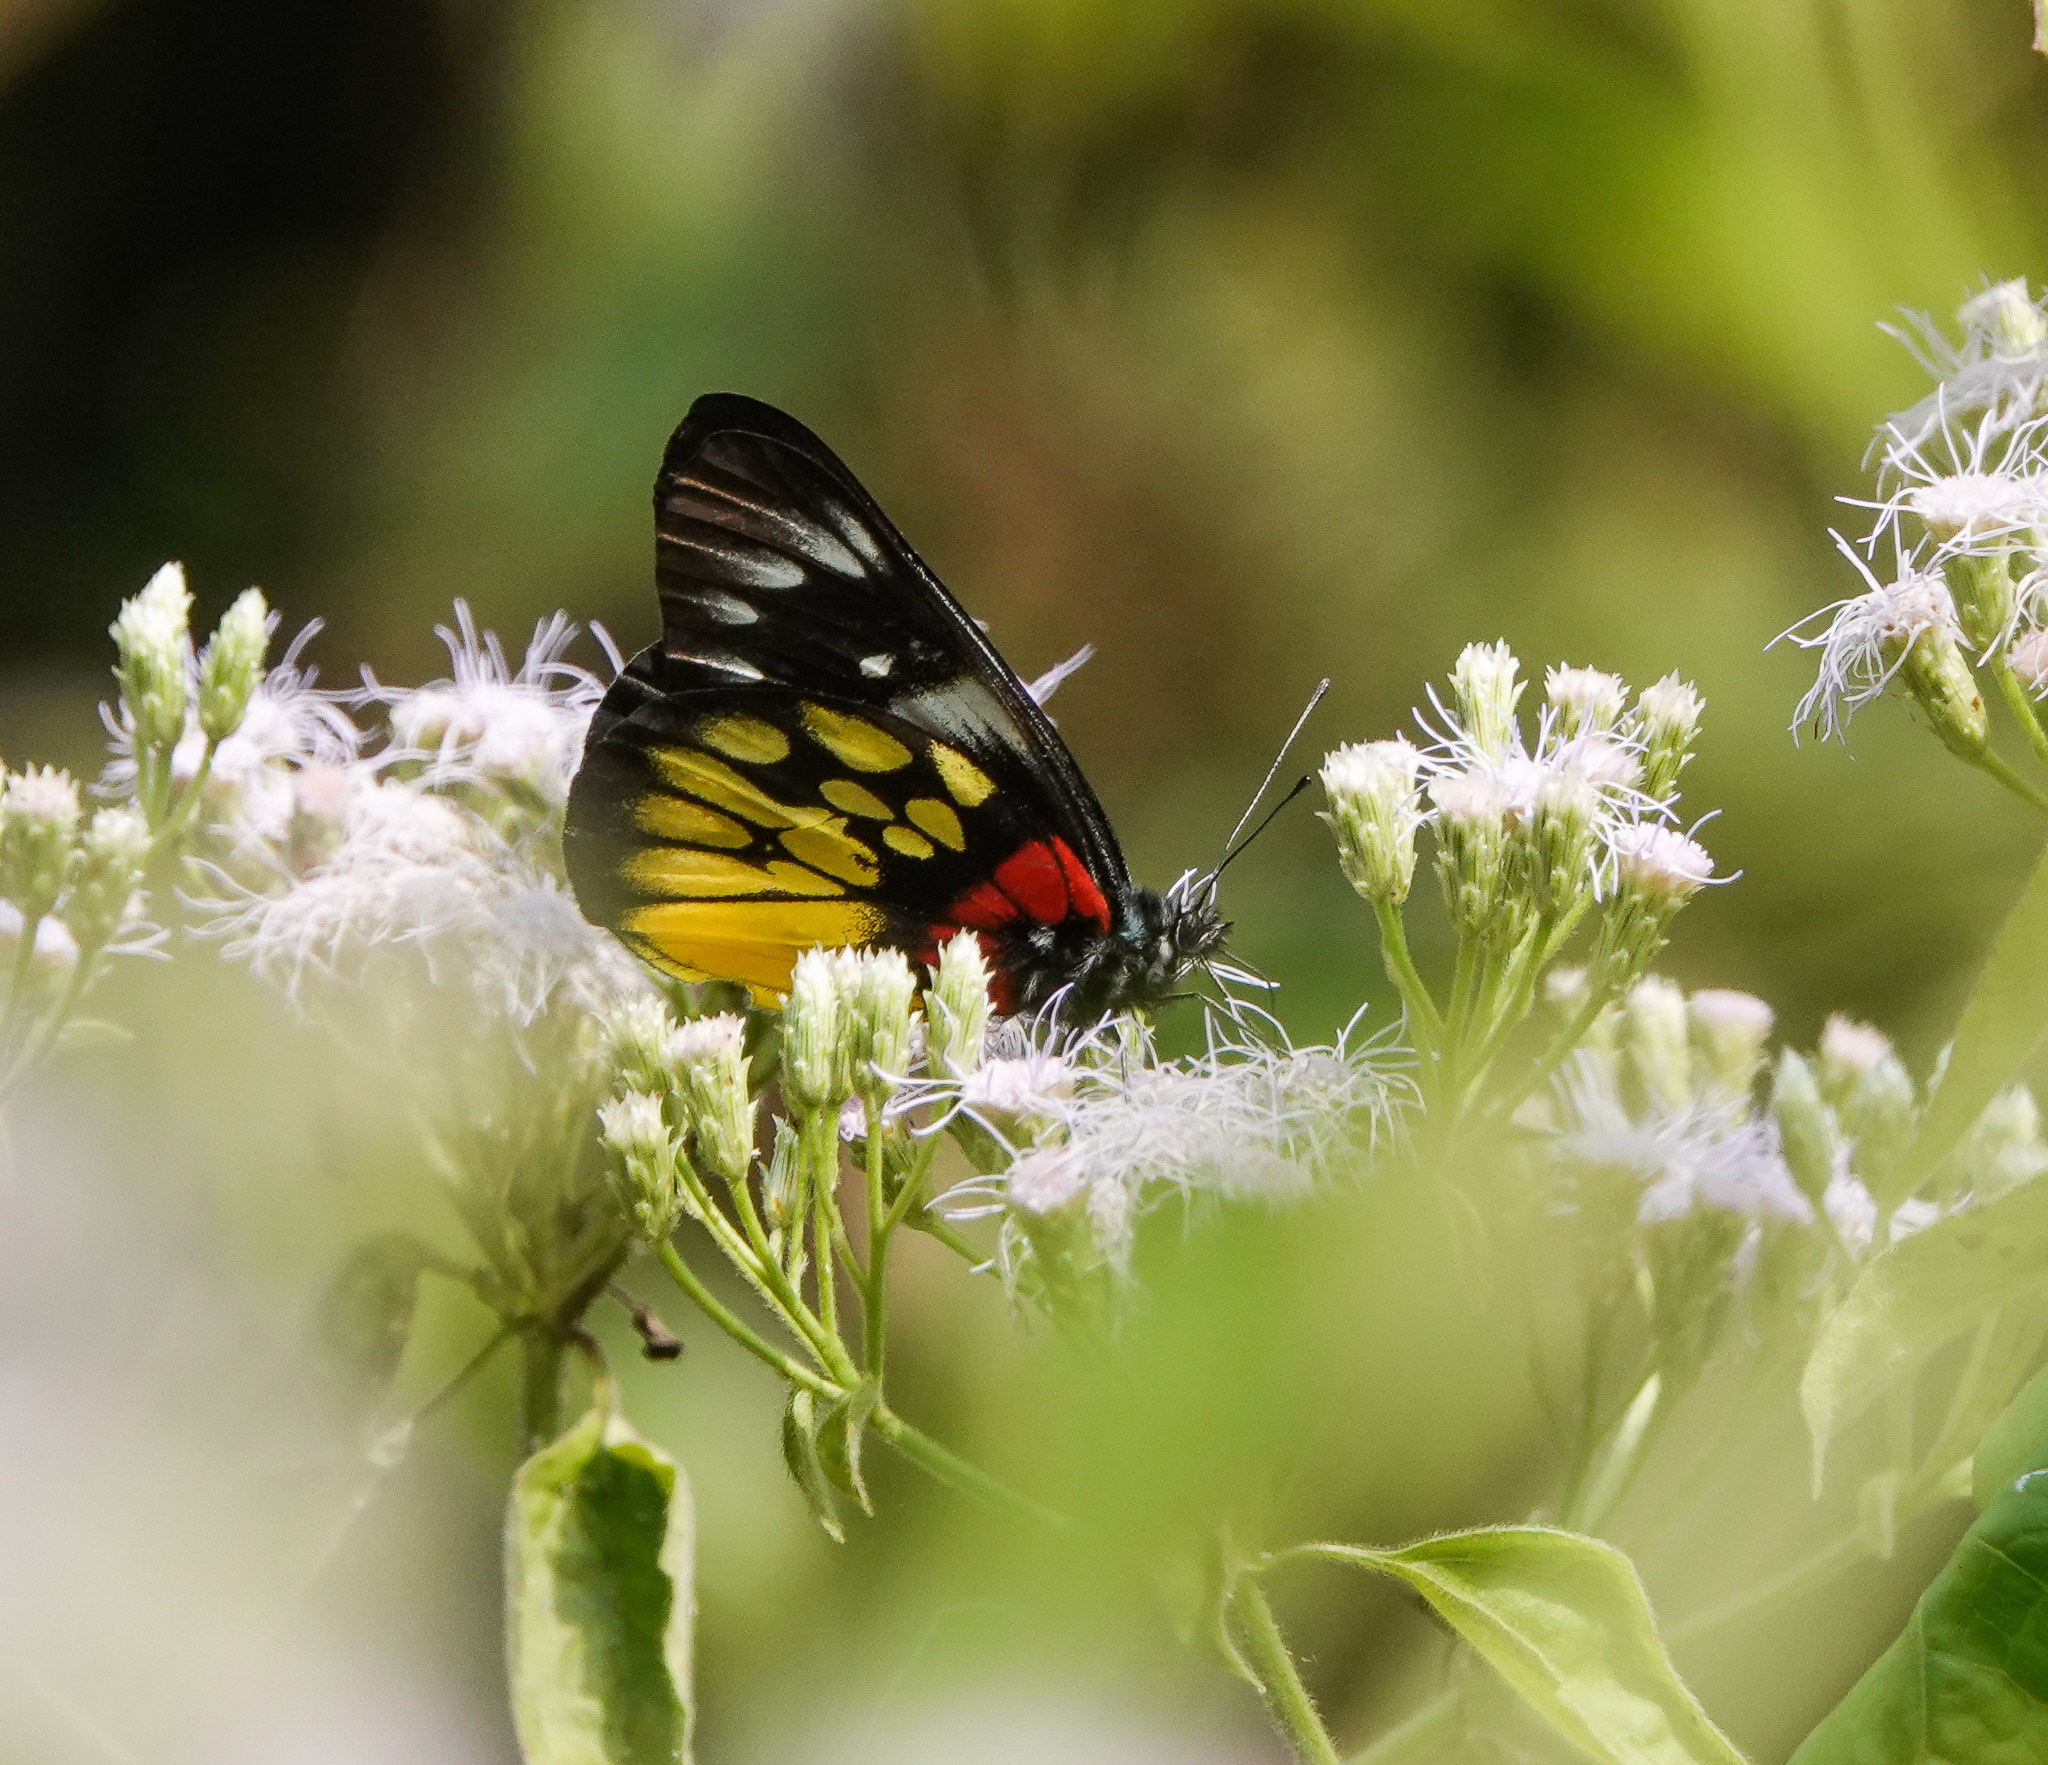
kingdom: Animalia
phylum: Arthropoda
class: Insecta
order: Lepidoptera
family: Pieridae
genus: Delias
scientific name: Delias pasithoe
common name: Red-base jezebel
